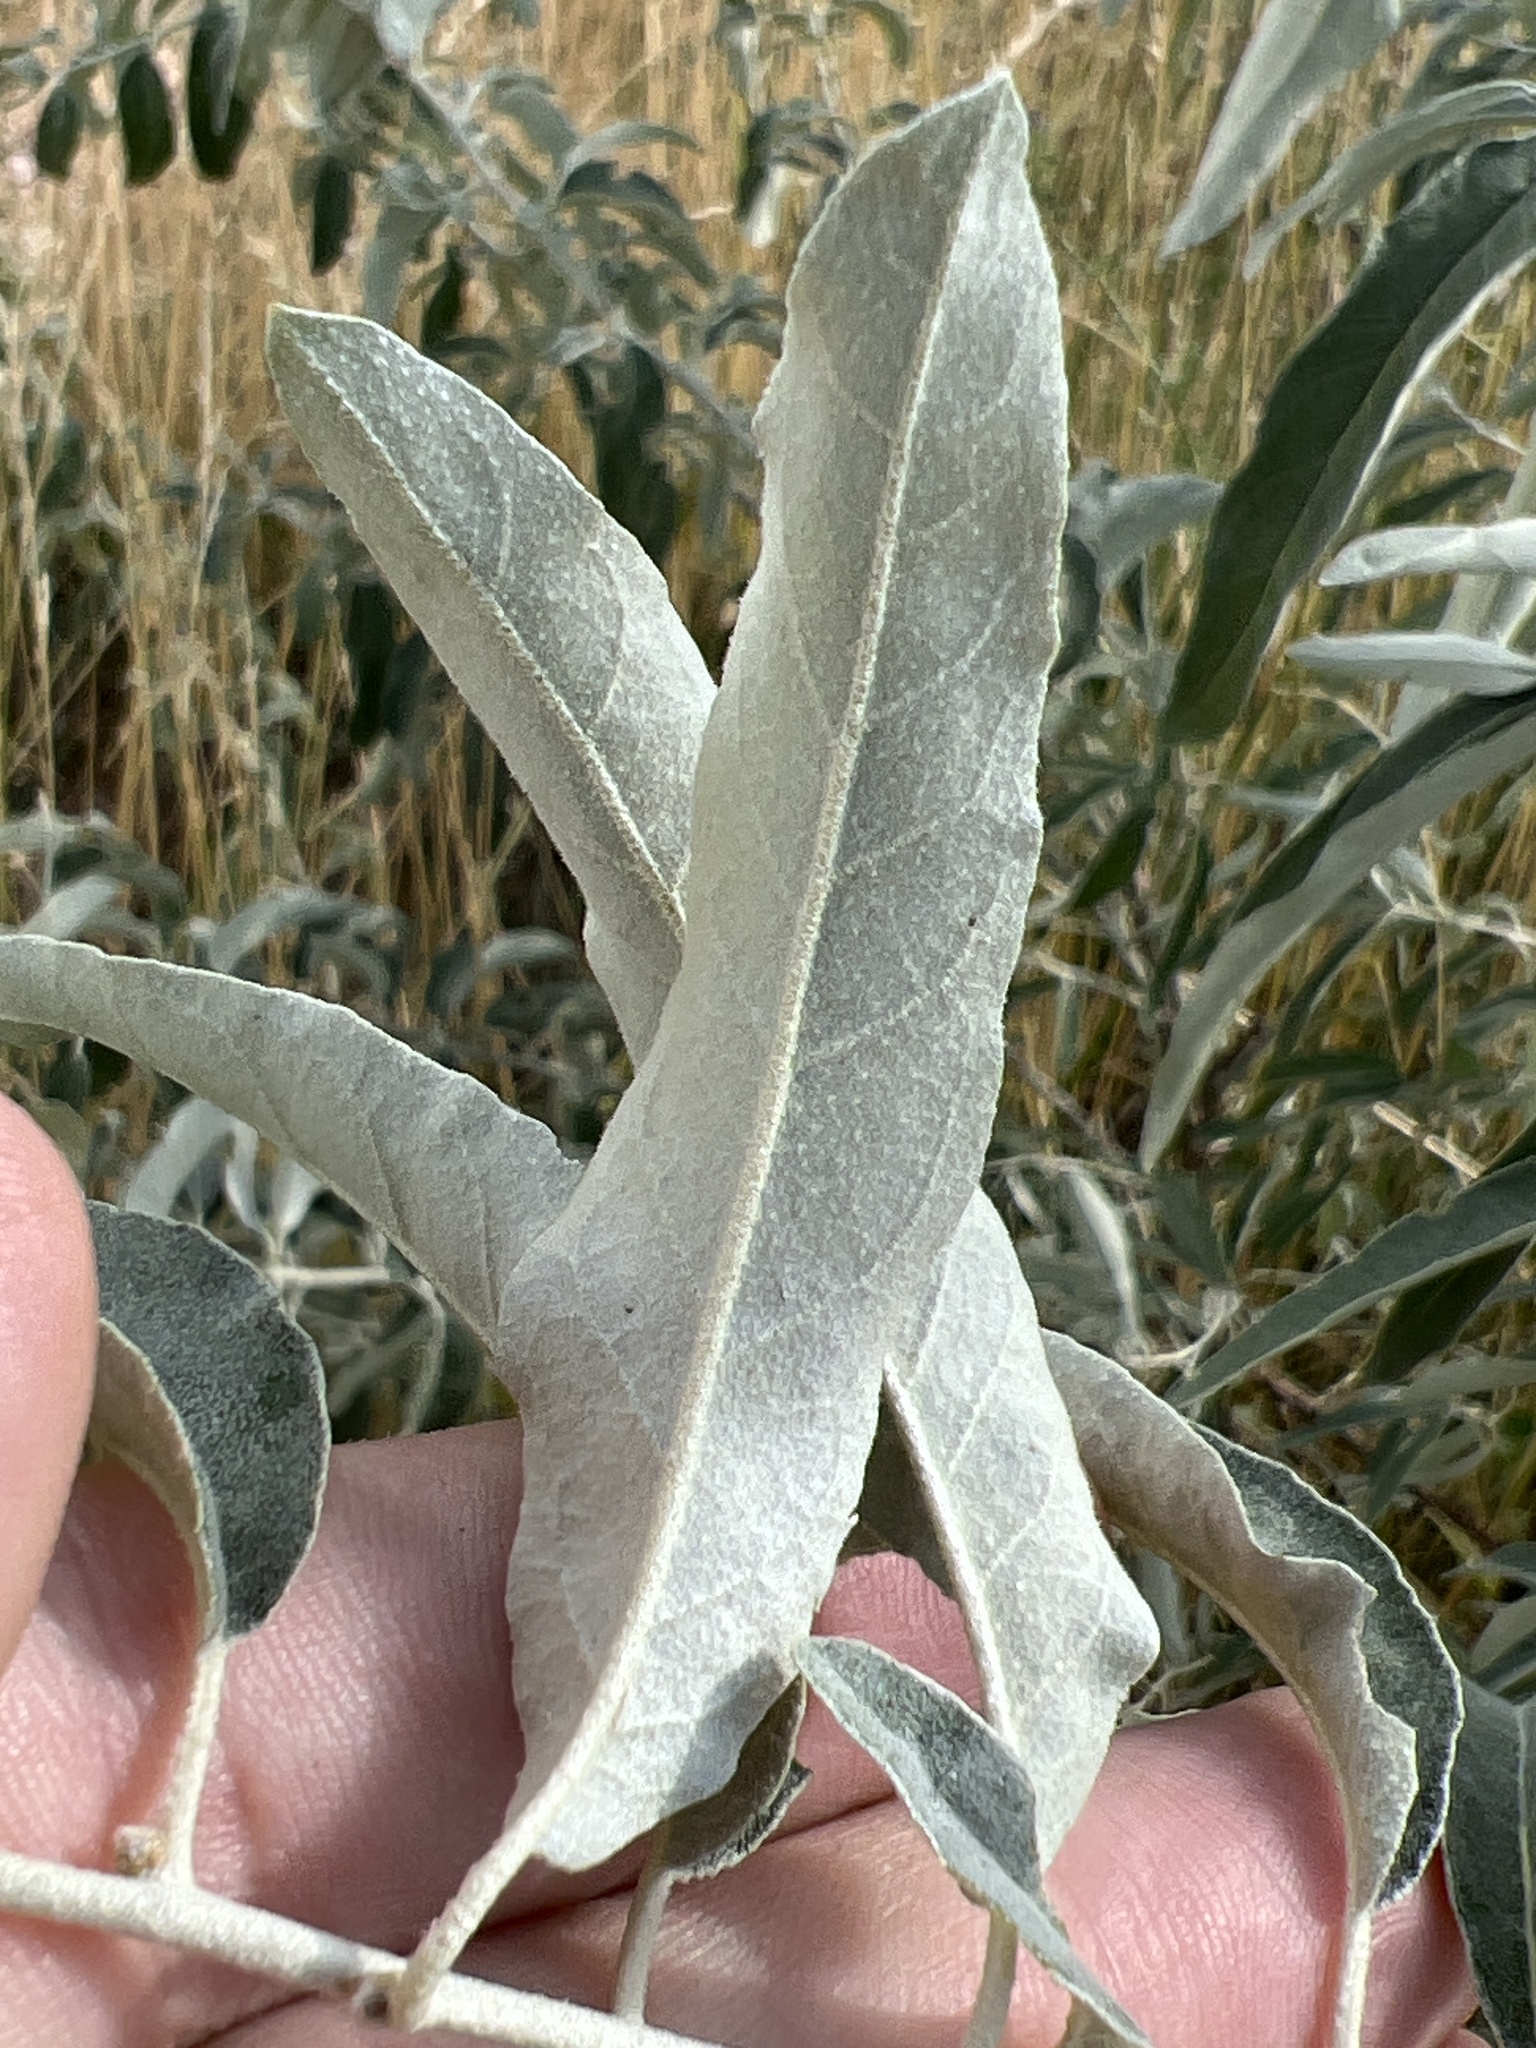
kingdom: Plantae
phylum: Tracheophyta
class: Magnoliopsida
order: Rosales
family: Elaeagnaceae
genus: Elaeagnus
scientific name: Elaeagnus angustifolia
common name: Russian olive
